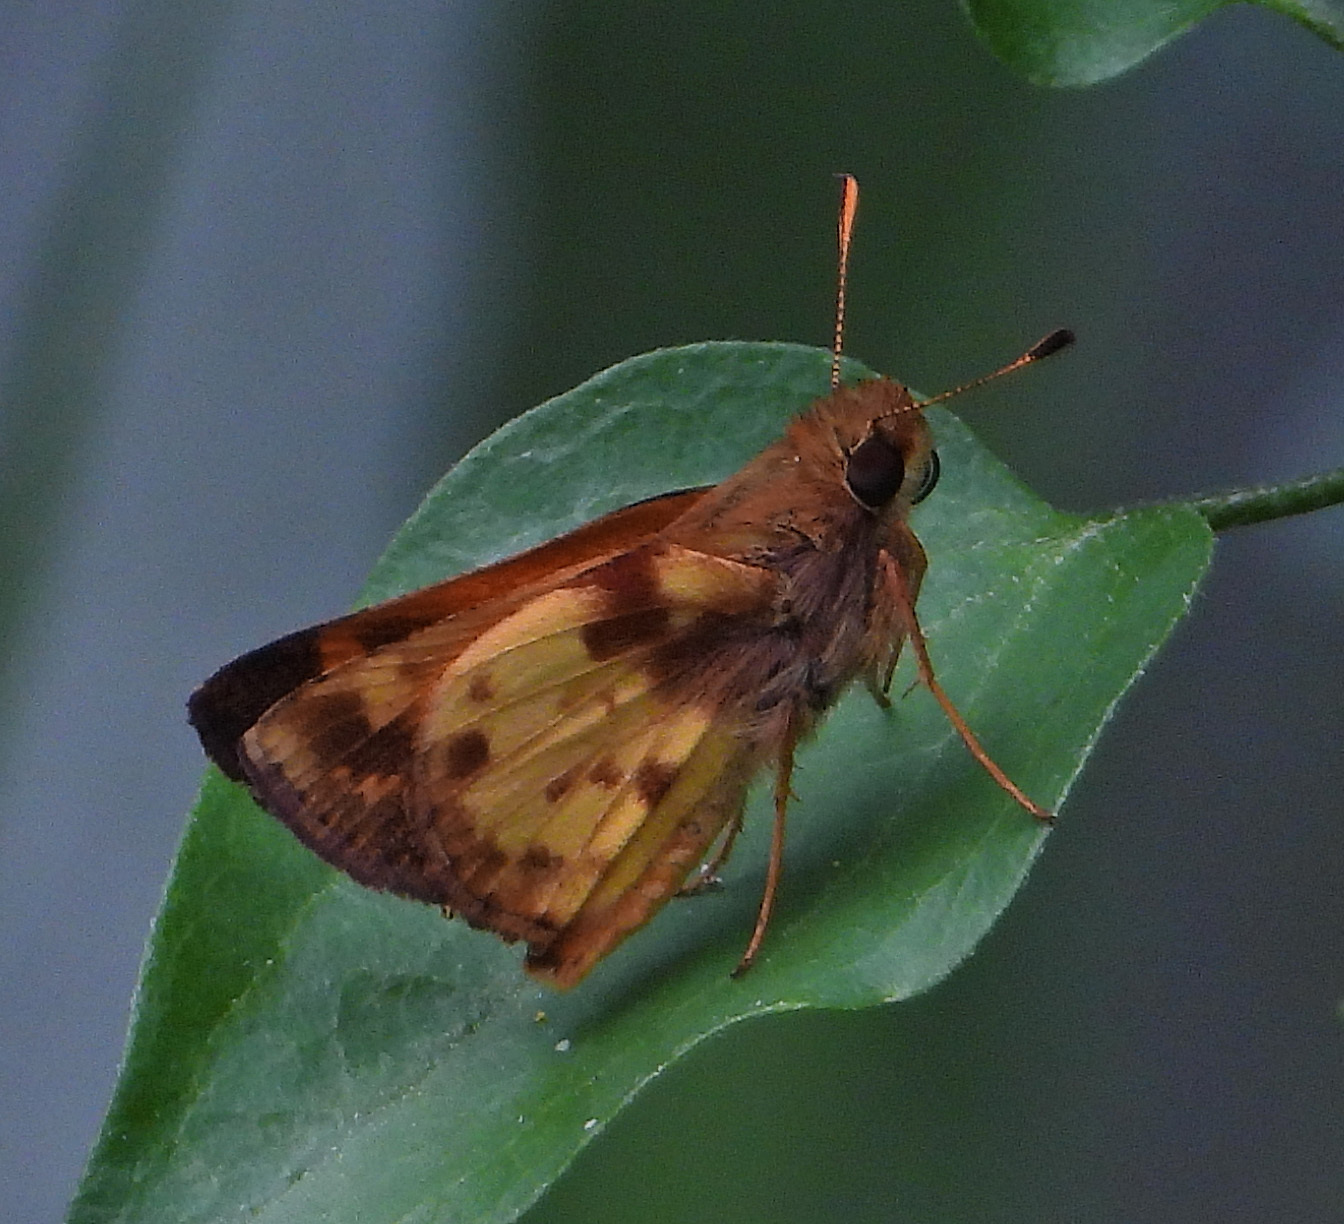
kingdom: Animalia
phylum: Arthropoda
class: Insecta
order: Lepidoptera
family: Hesperiidae
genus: Lon
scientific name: Lon zabulon
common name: Zabulon skipper
